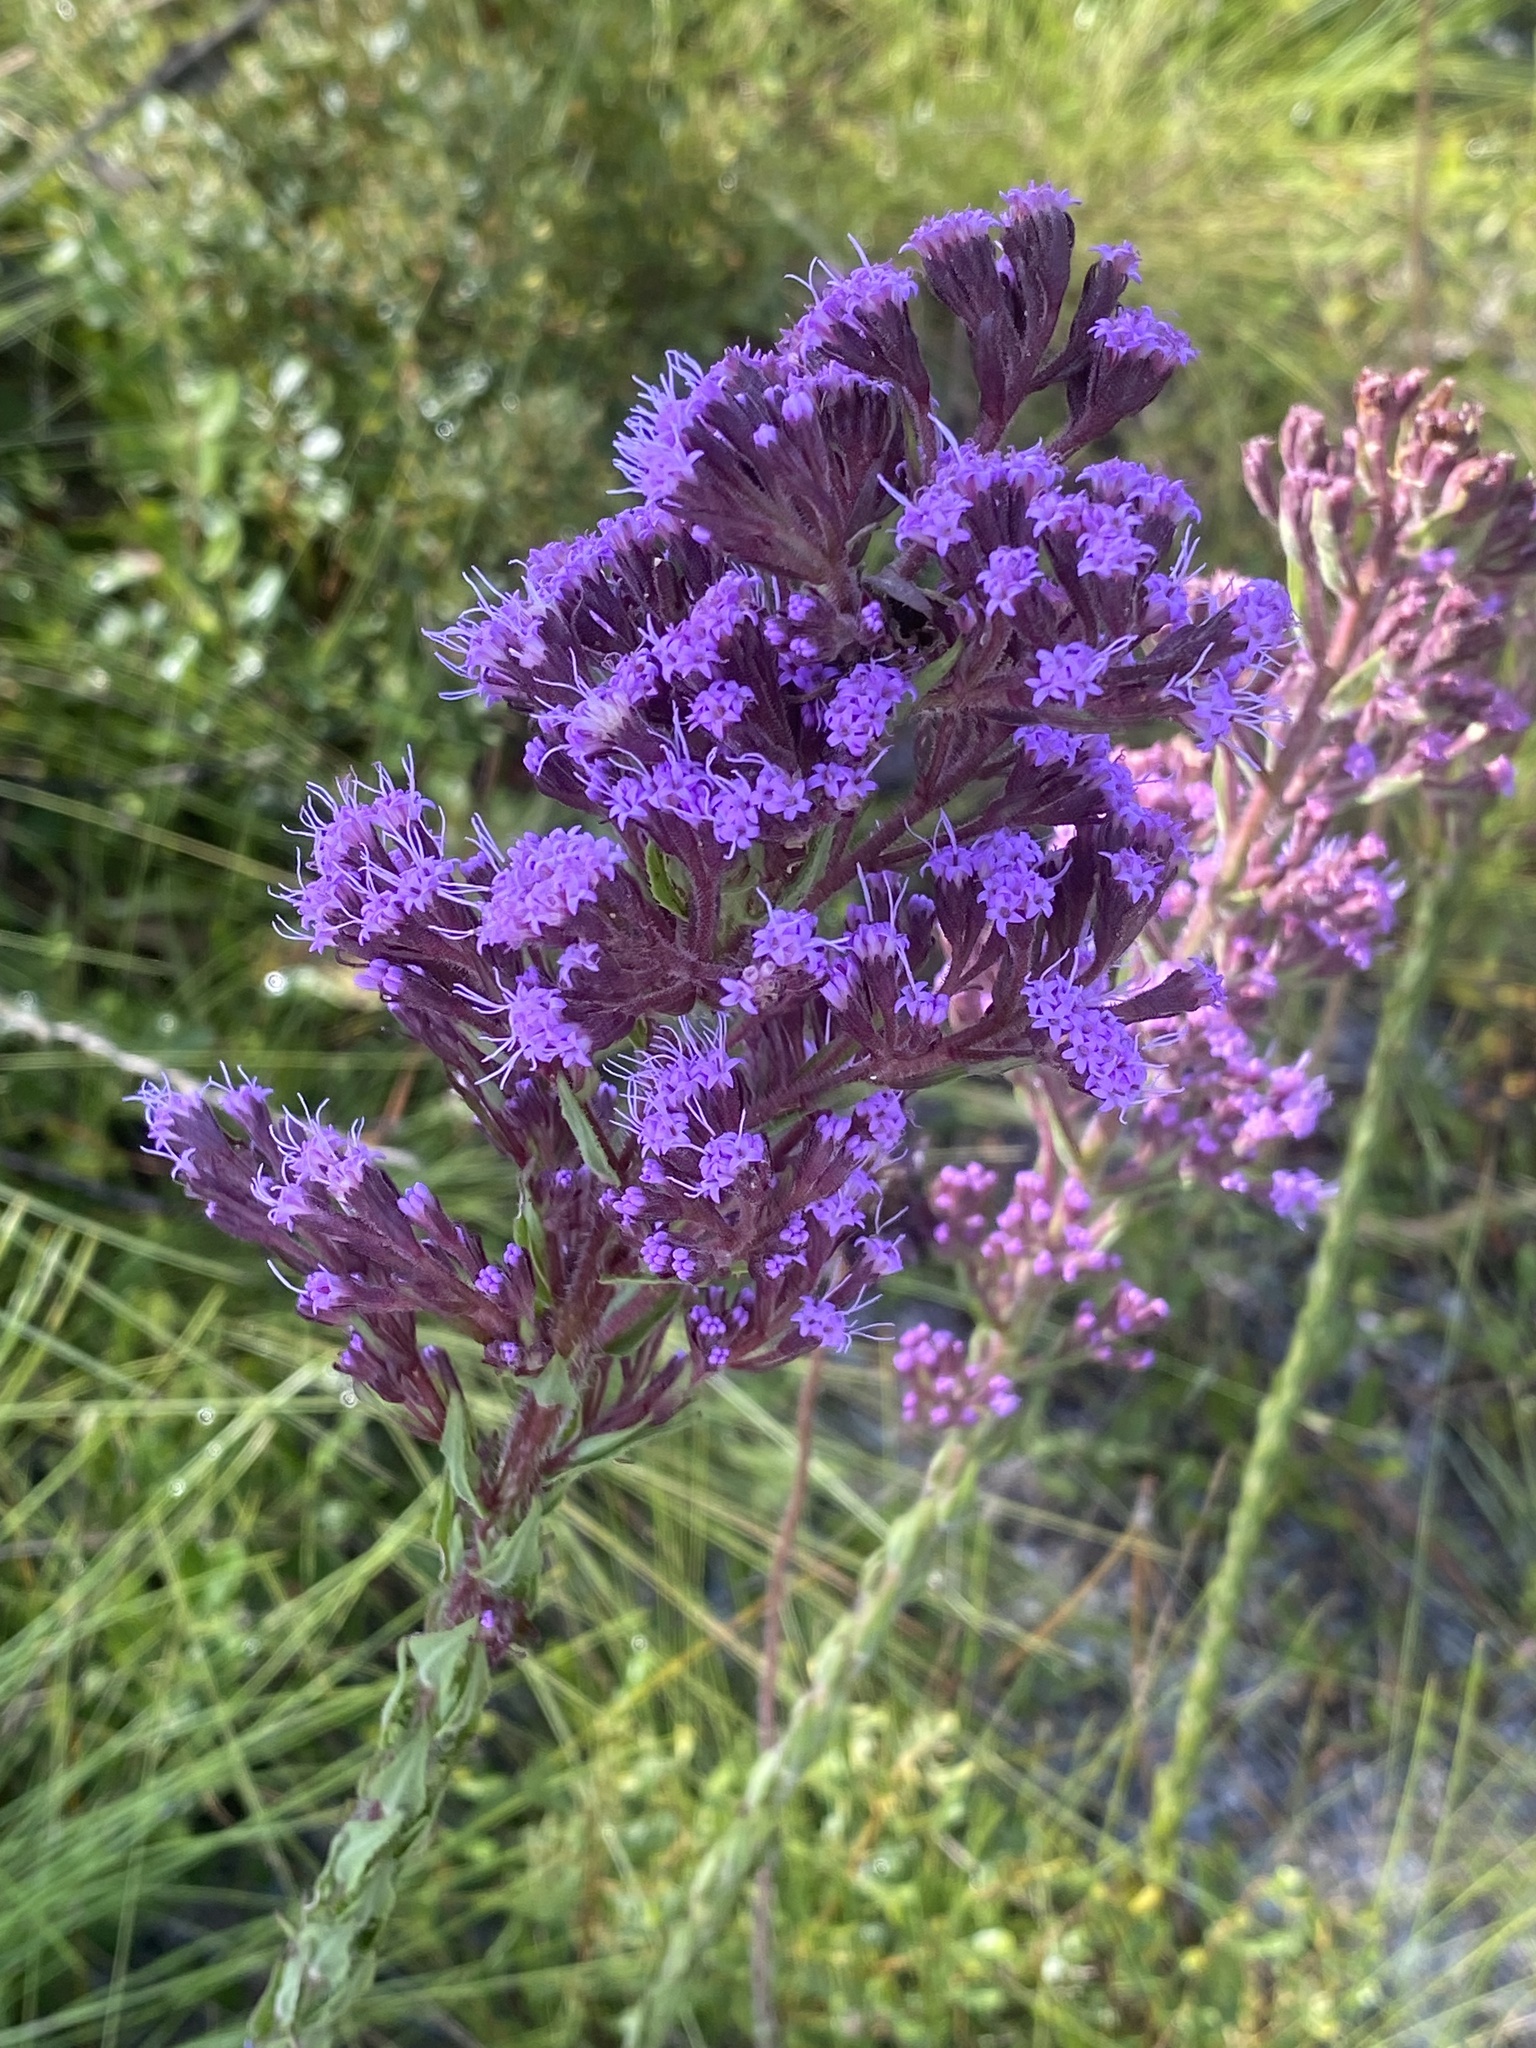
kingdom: Plantae
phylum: Tracheophyta
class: Magnoliopsida
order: Asterales
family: Asteraceae
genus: Carphephorus
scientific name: Carphephorus paniculatus
